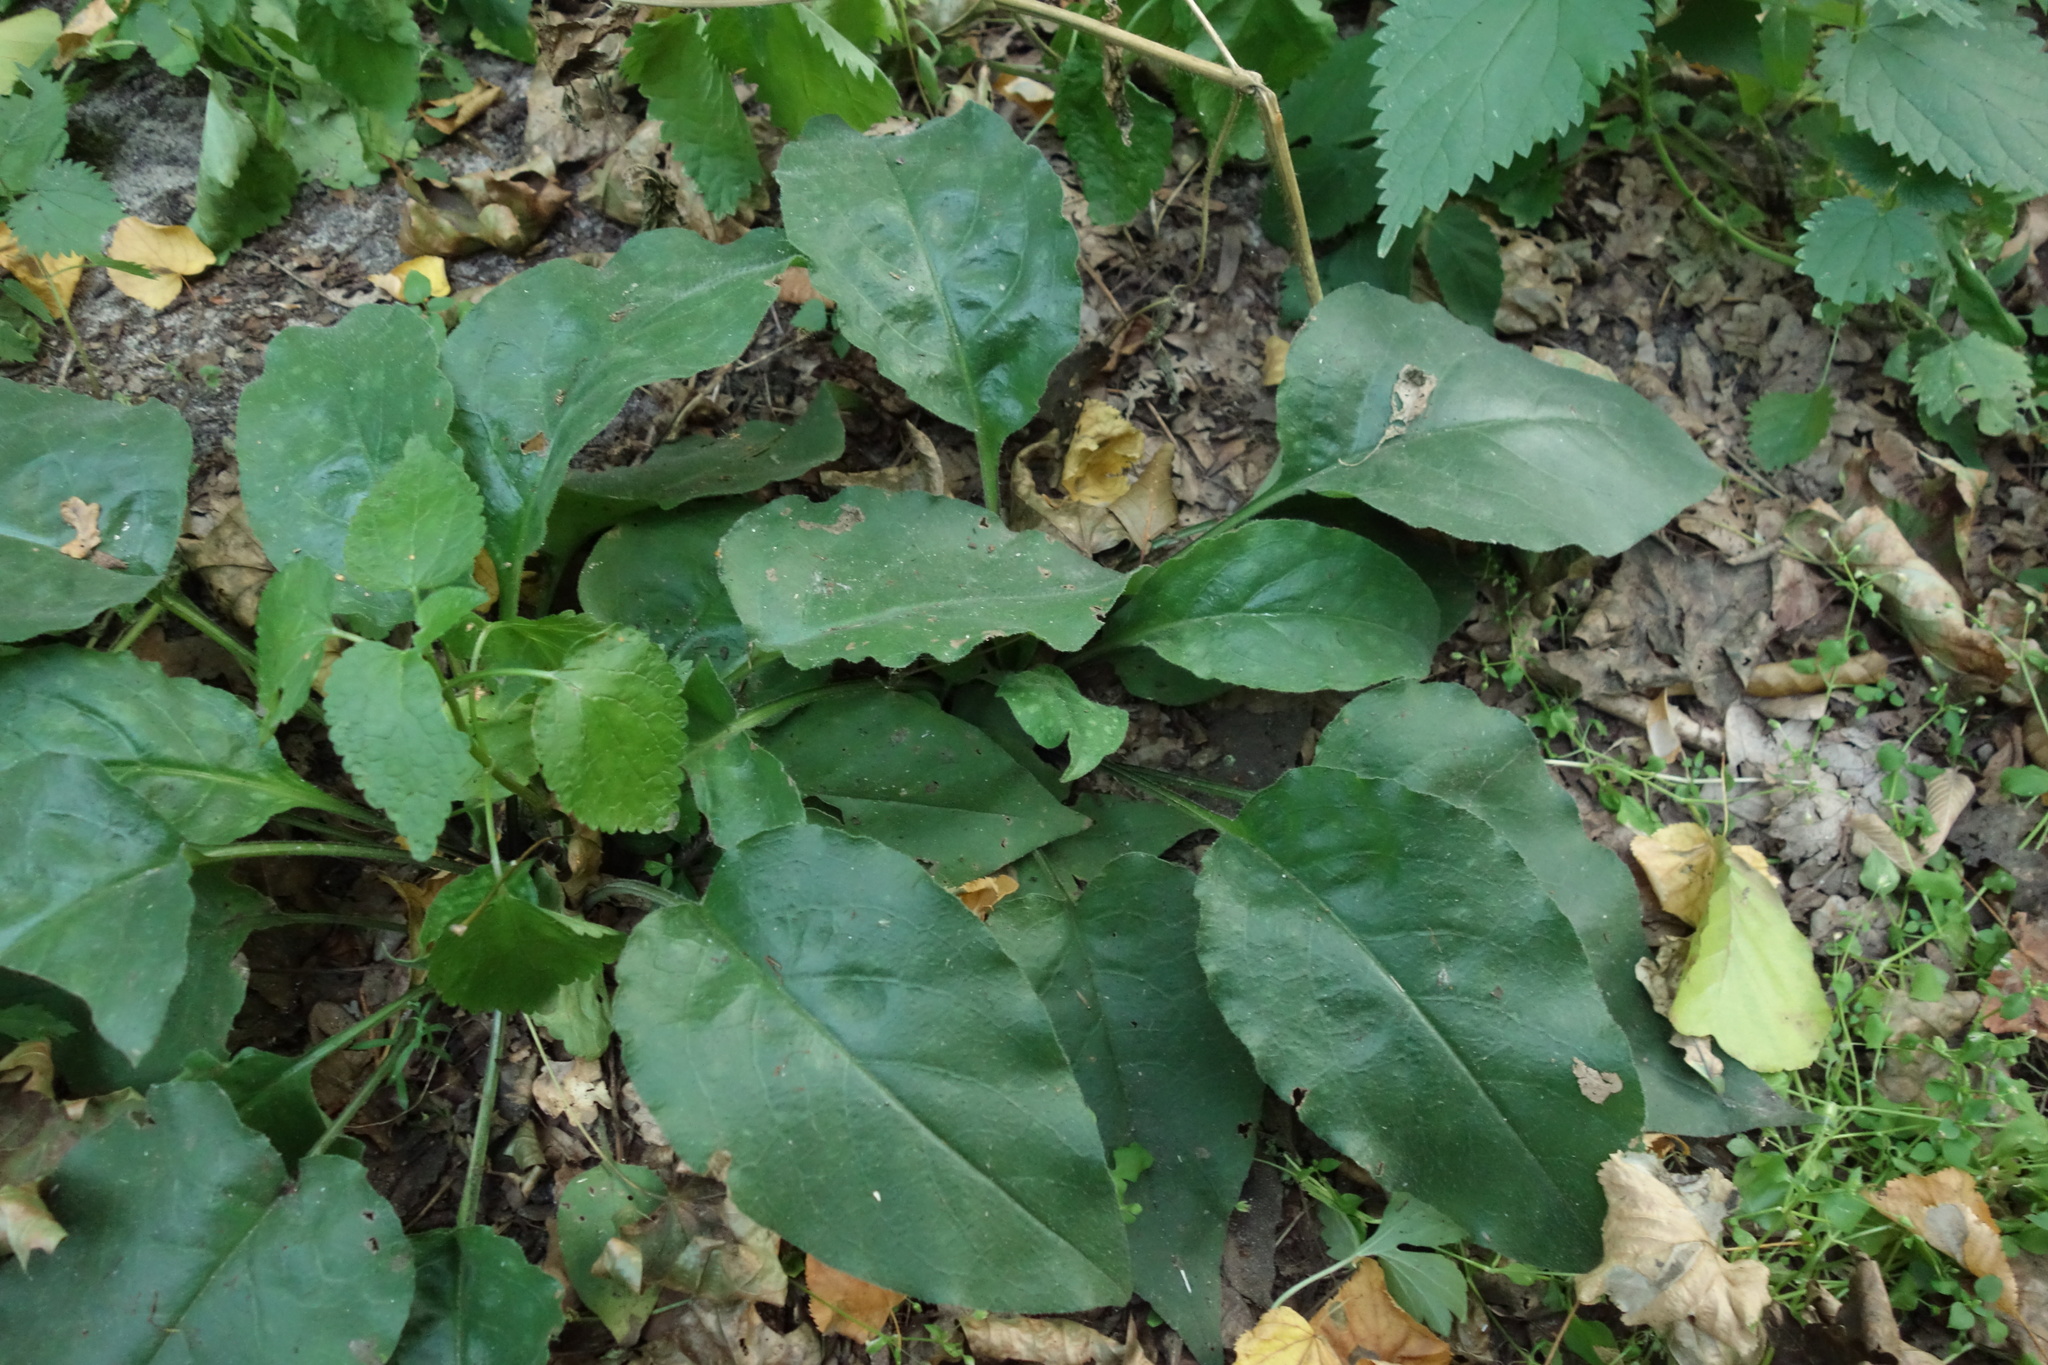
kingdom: Plantae
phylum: Tracheophyta
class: Magnoliopsida
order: Boraginales
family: Boraginaceae
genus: Pulmonaria
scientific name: Pulmonaria obscura
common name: Suffolk lungwort
